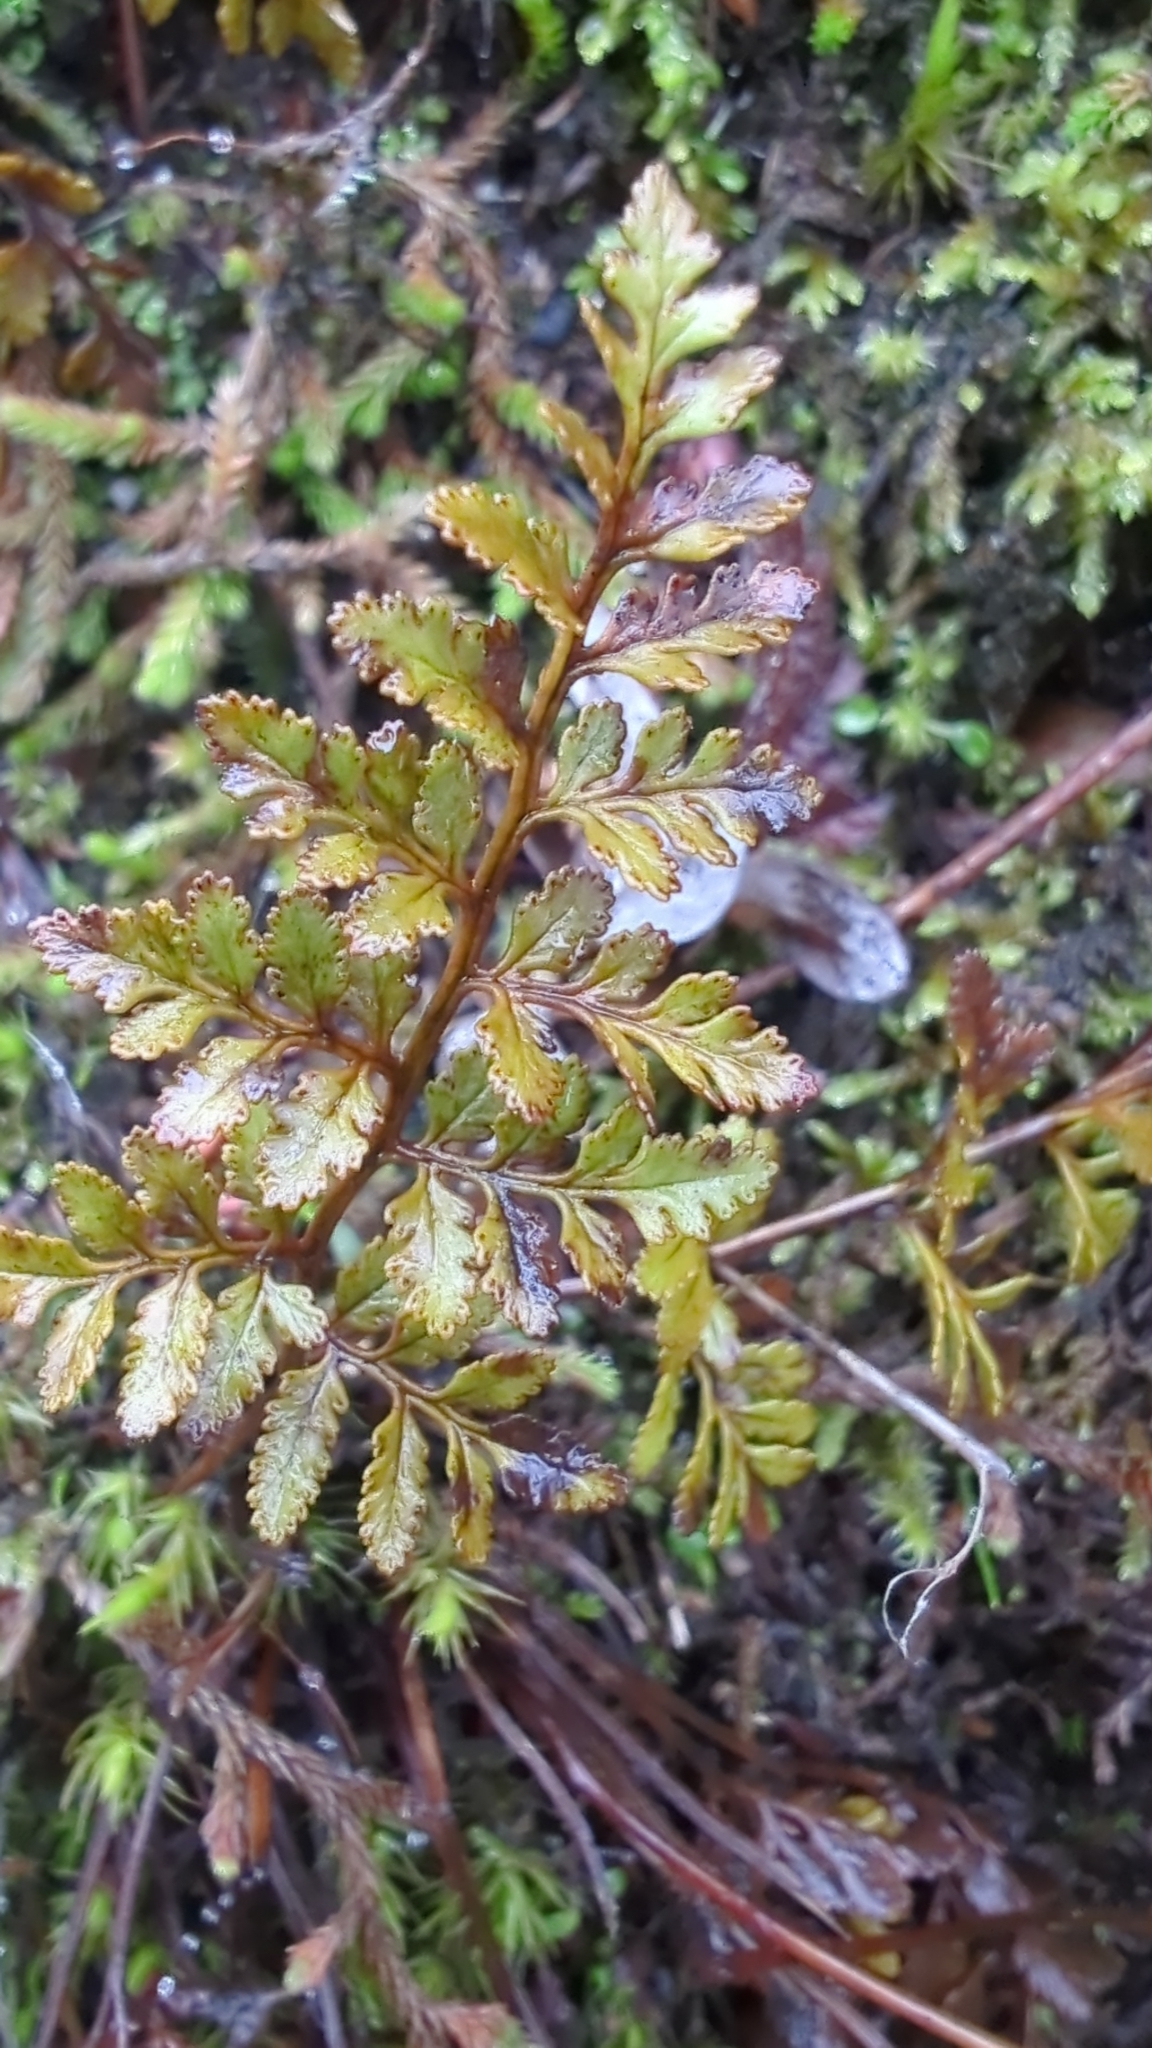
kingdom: Plantae
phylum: Tracheophyta
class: Polypodiopsida
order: Polypodiales
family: Pteridaceae
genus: Cryptogramma
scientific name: Cryptogramma acrostichoides
